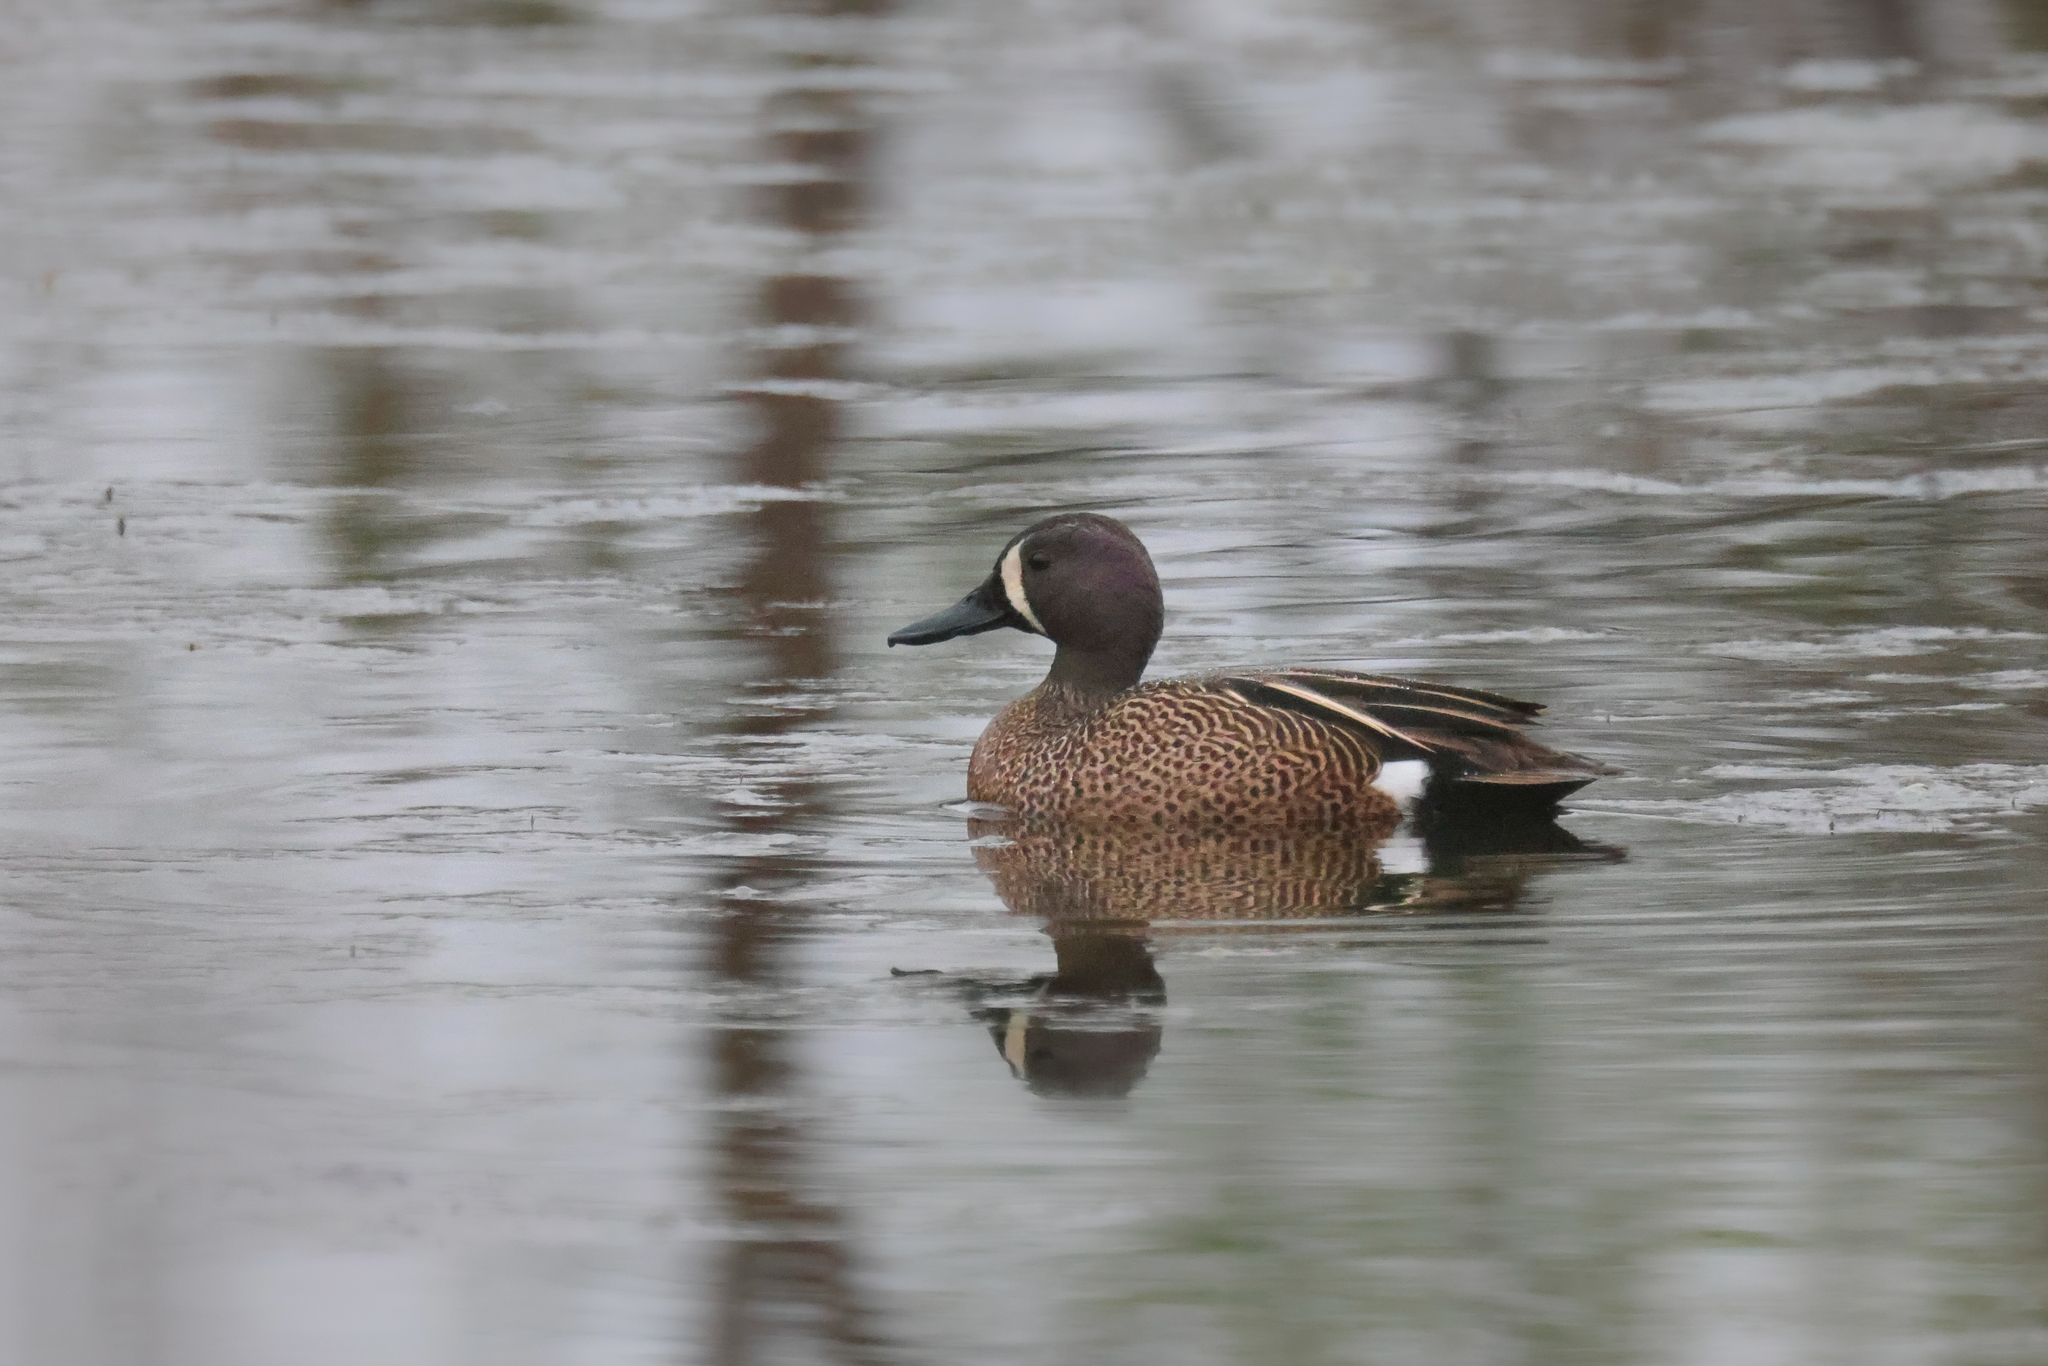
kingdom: Animalia
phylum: Chordata
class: Aves
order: Anseriformes
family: Anatidae
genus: Spatula
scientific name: Spatula discors
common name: Blue-winged teal
